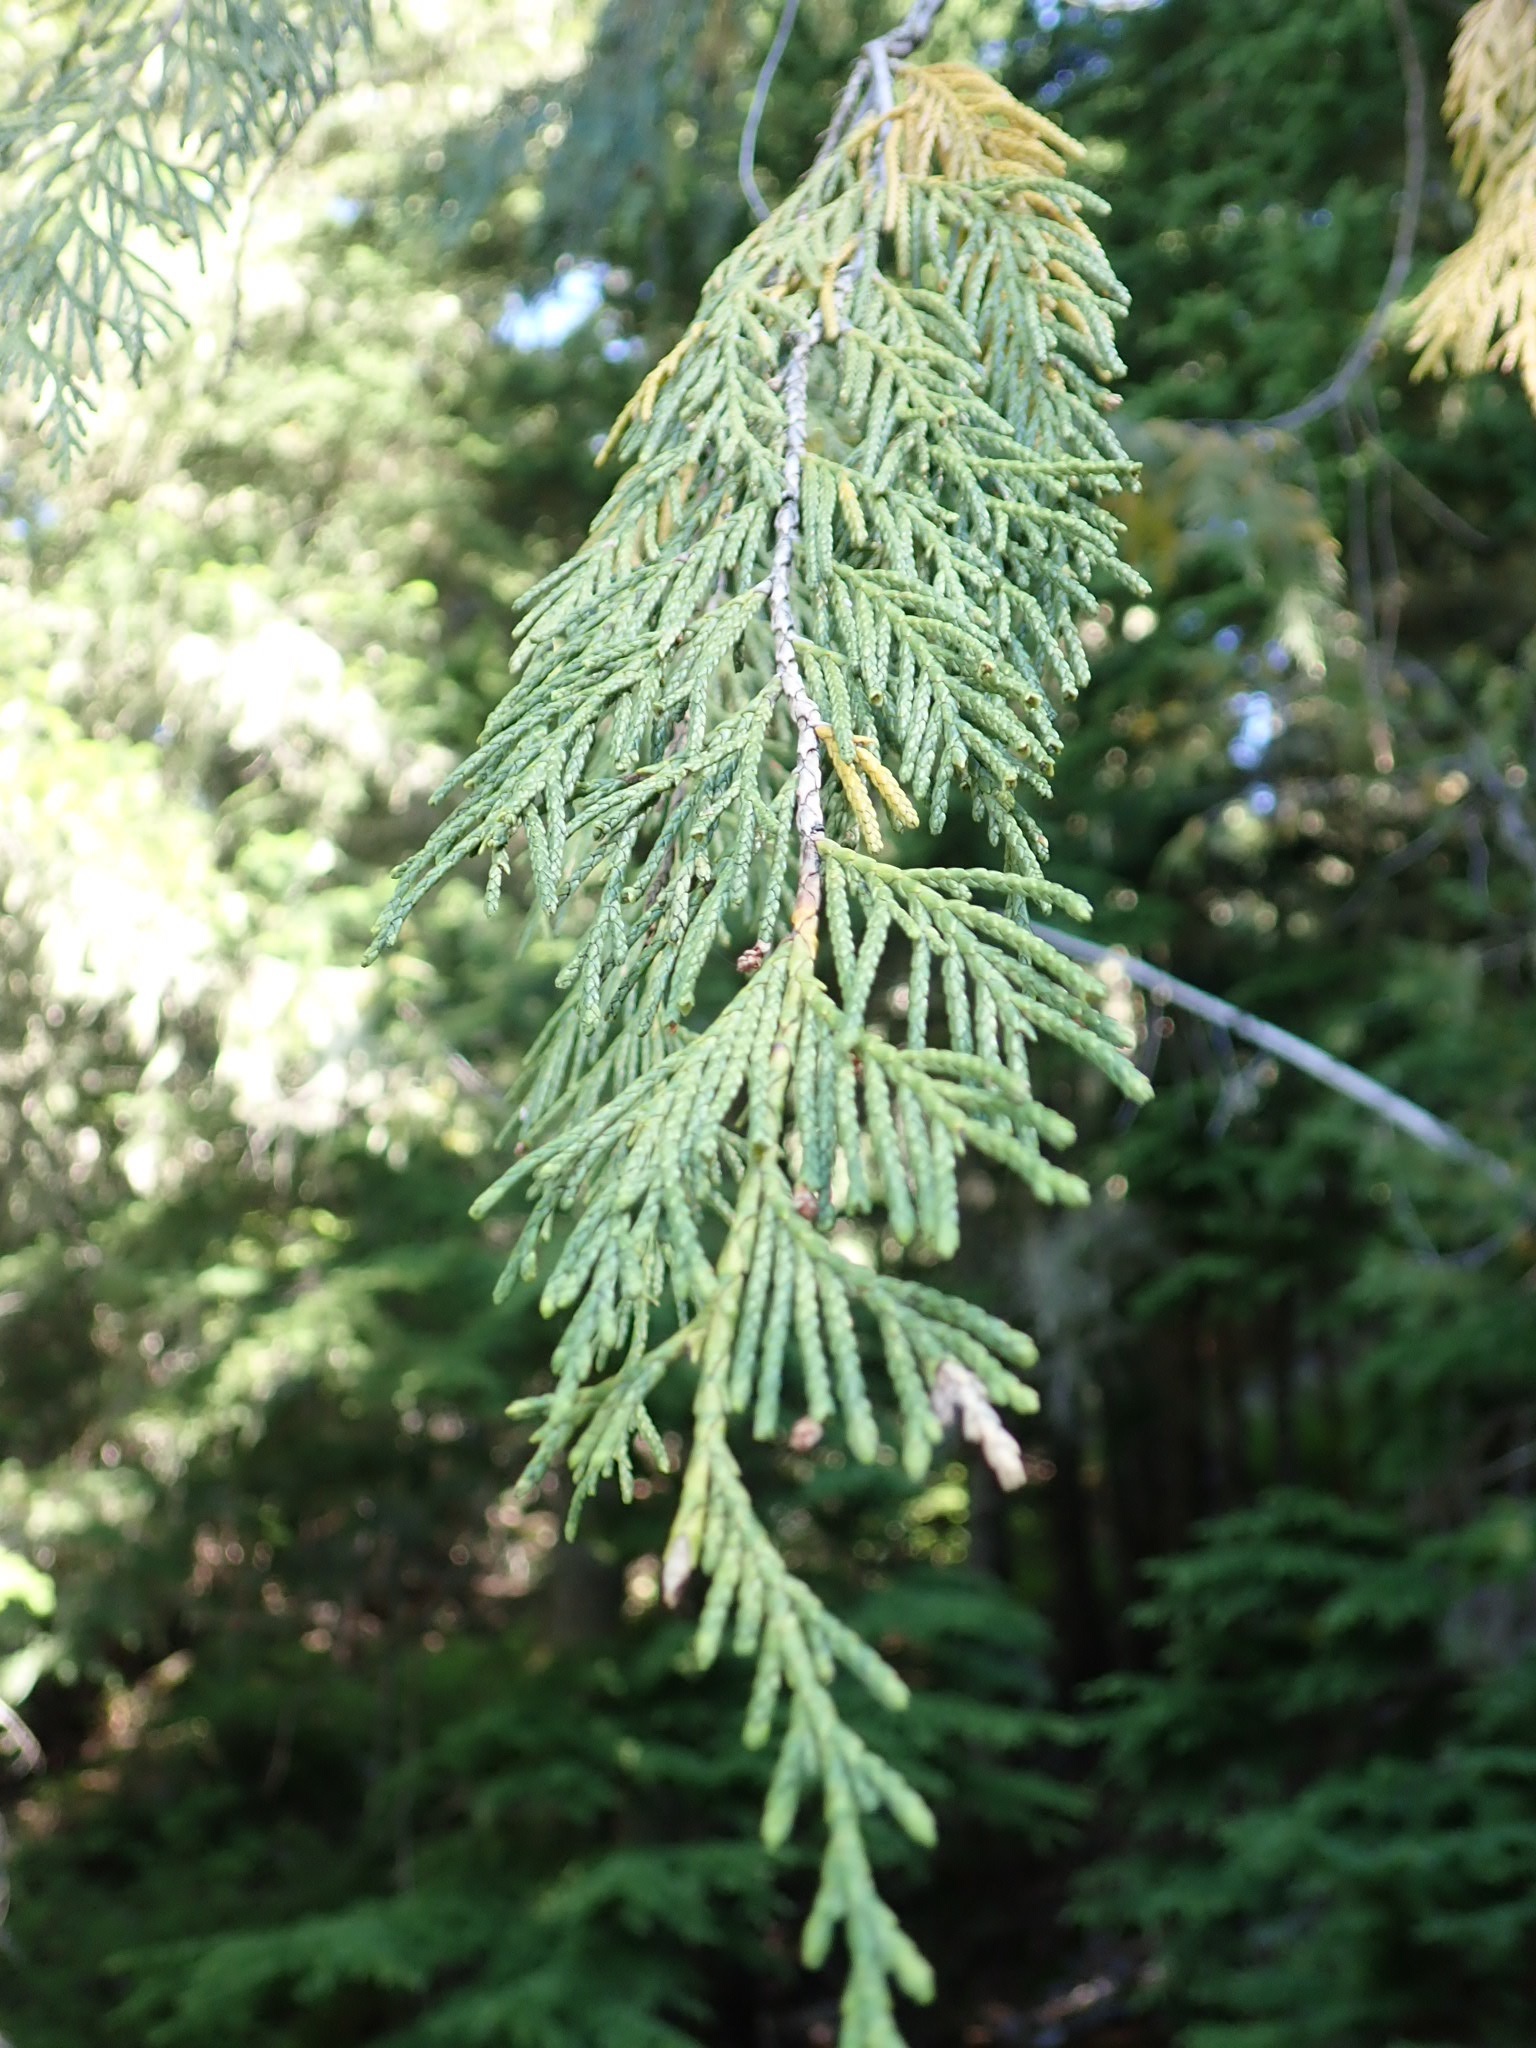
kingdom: Plantae
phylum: Tracheophyta
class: Pinopsida
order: Pinales
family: Cupressaceae
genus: Xanthocyparis
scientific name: Xanthocyparis nootkatensis
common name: Nootka cypress
